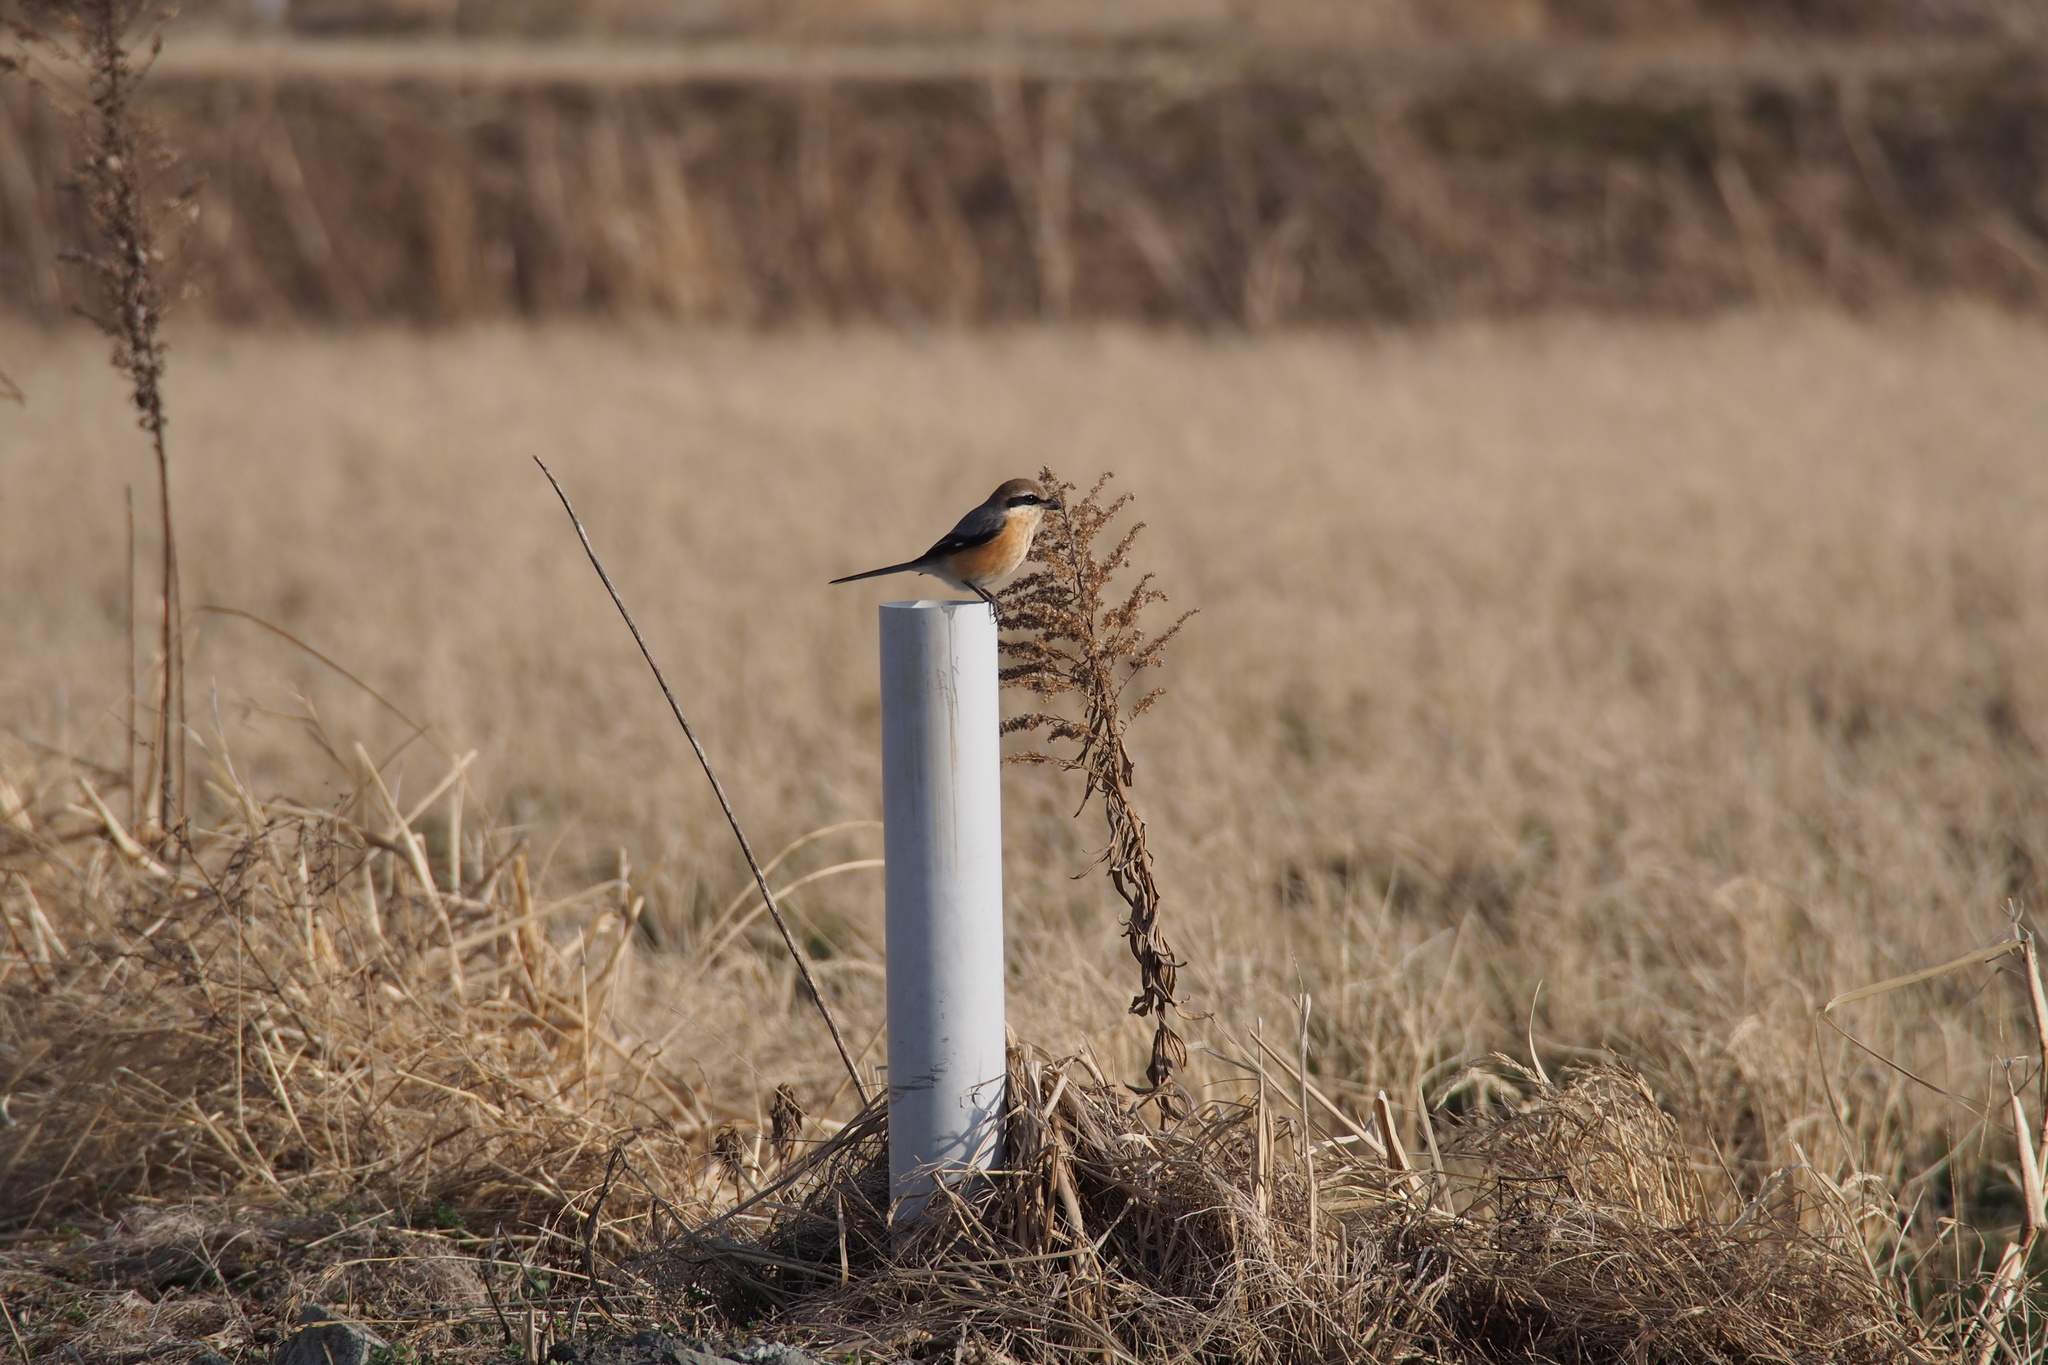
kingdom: Animalia
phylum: Chordata
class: Aves
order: Passeriformes
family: Laniidae
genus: Lanius
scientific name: Lanius bucephalus
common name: Bull-headed shrike
